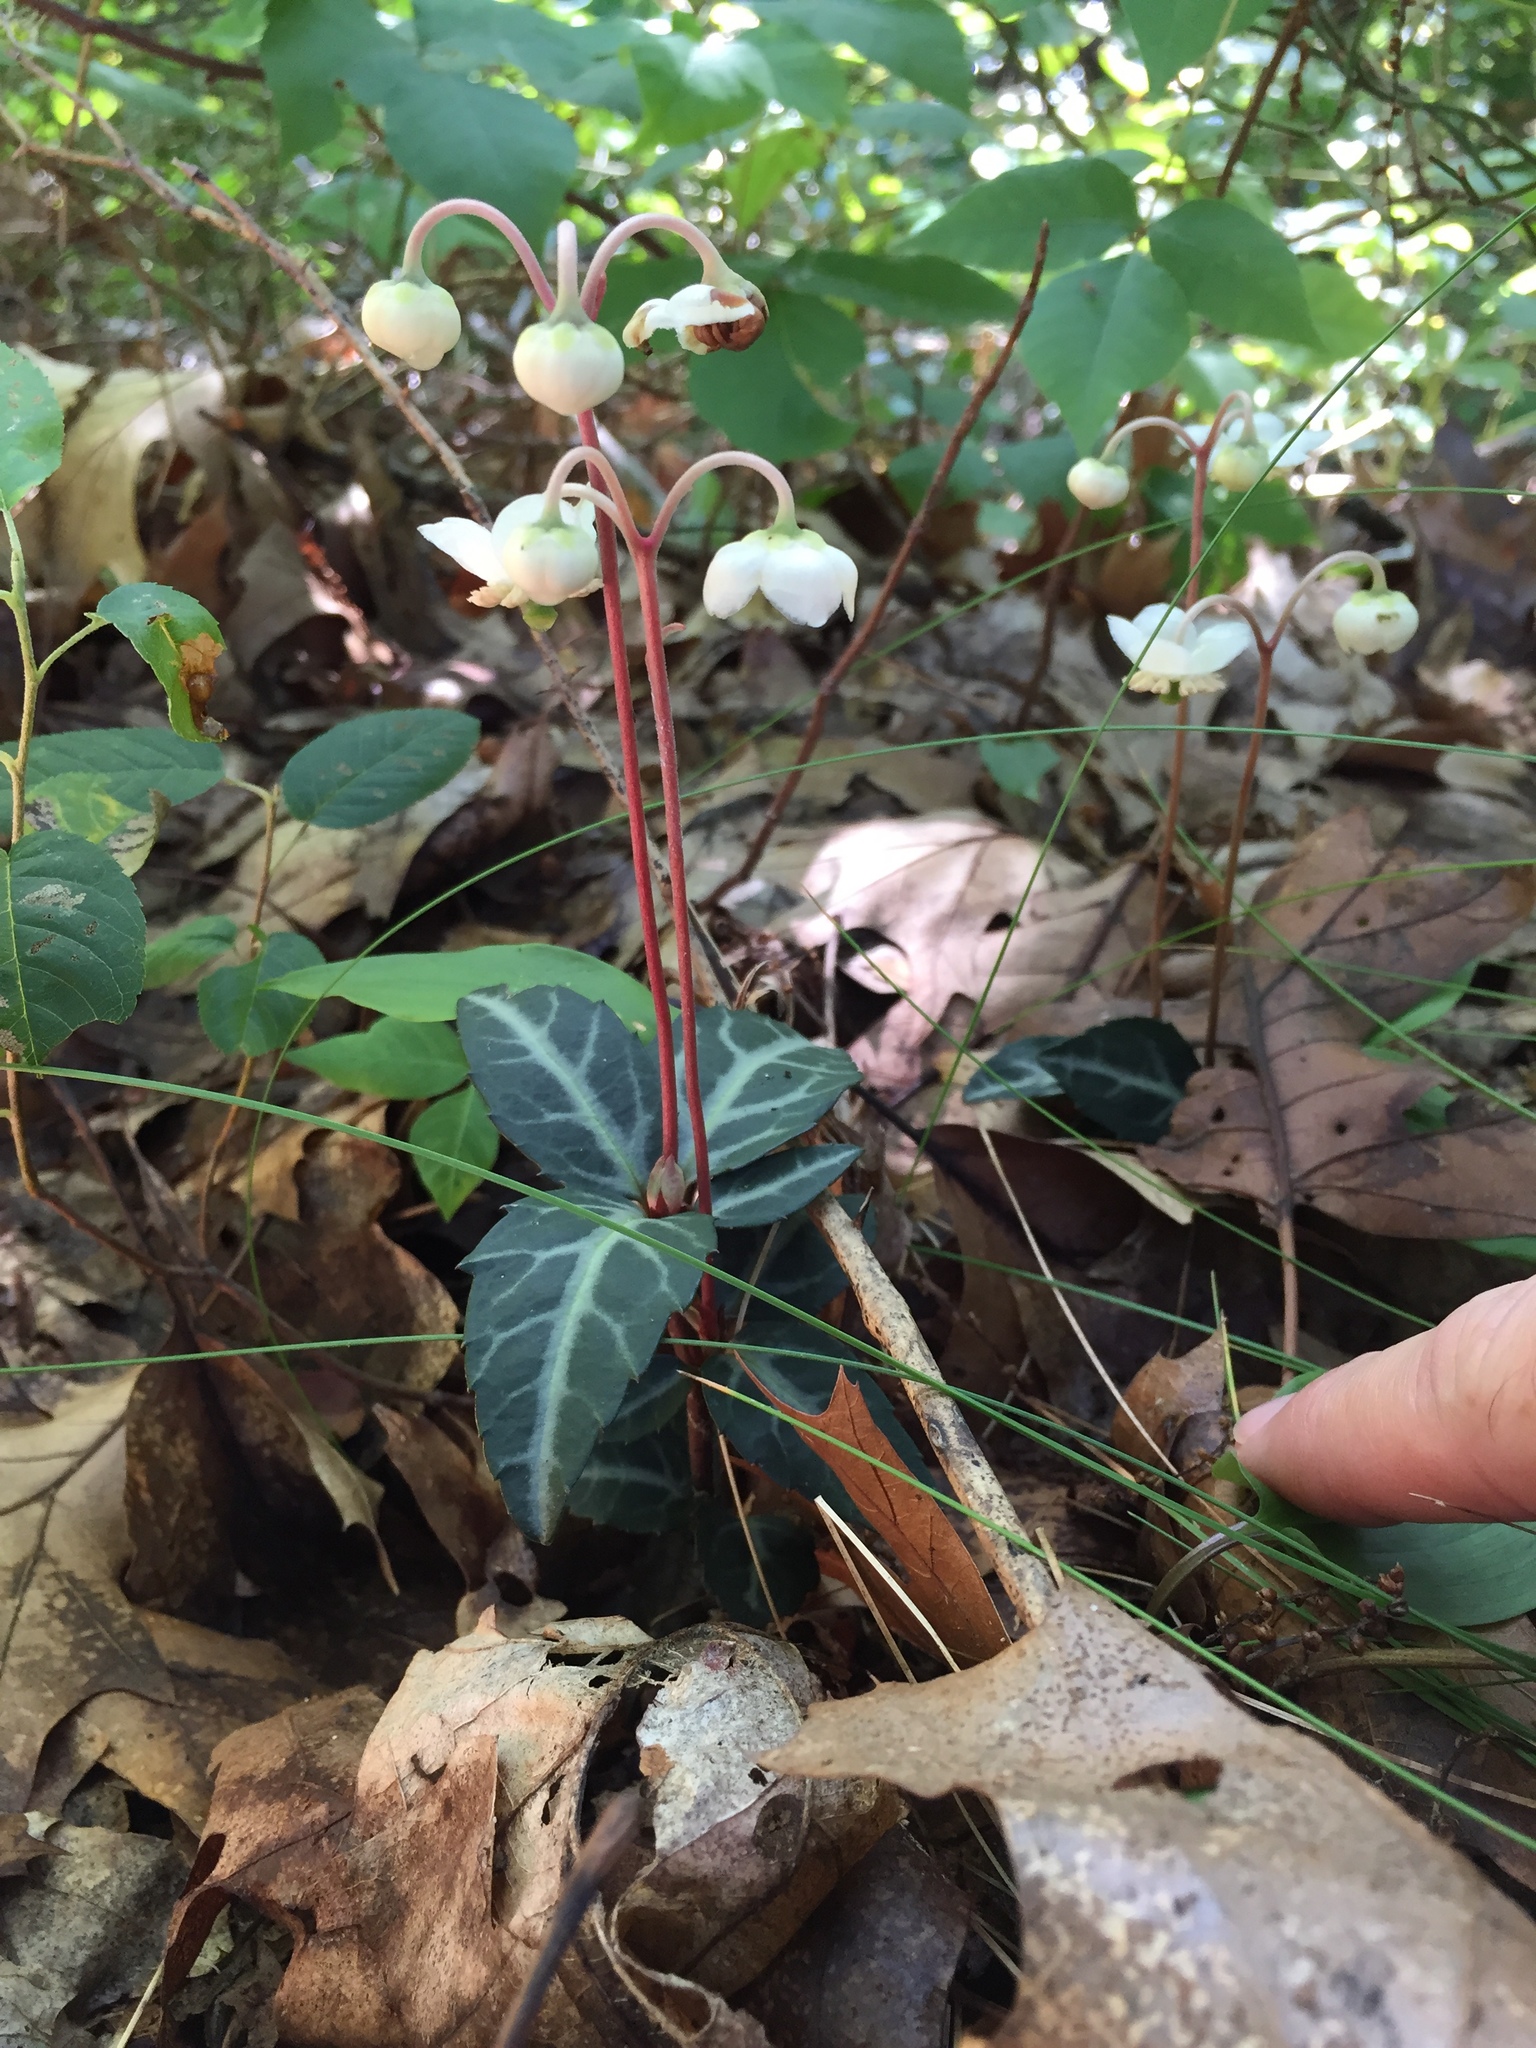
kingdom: Plantae
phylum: Tracheophyta
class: Magnoliopsida
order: Ericales
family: Ericaceae
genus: Chimaphila
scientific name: Chimaphila maculata
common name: Spotted pipsissewa
